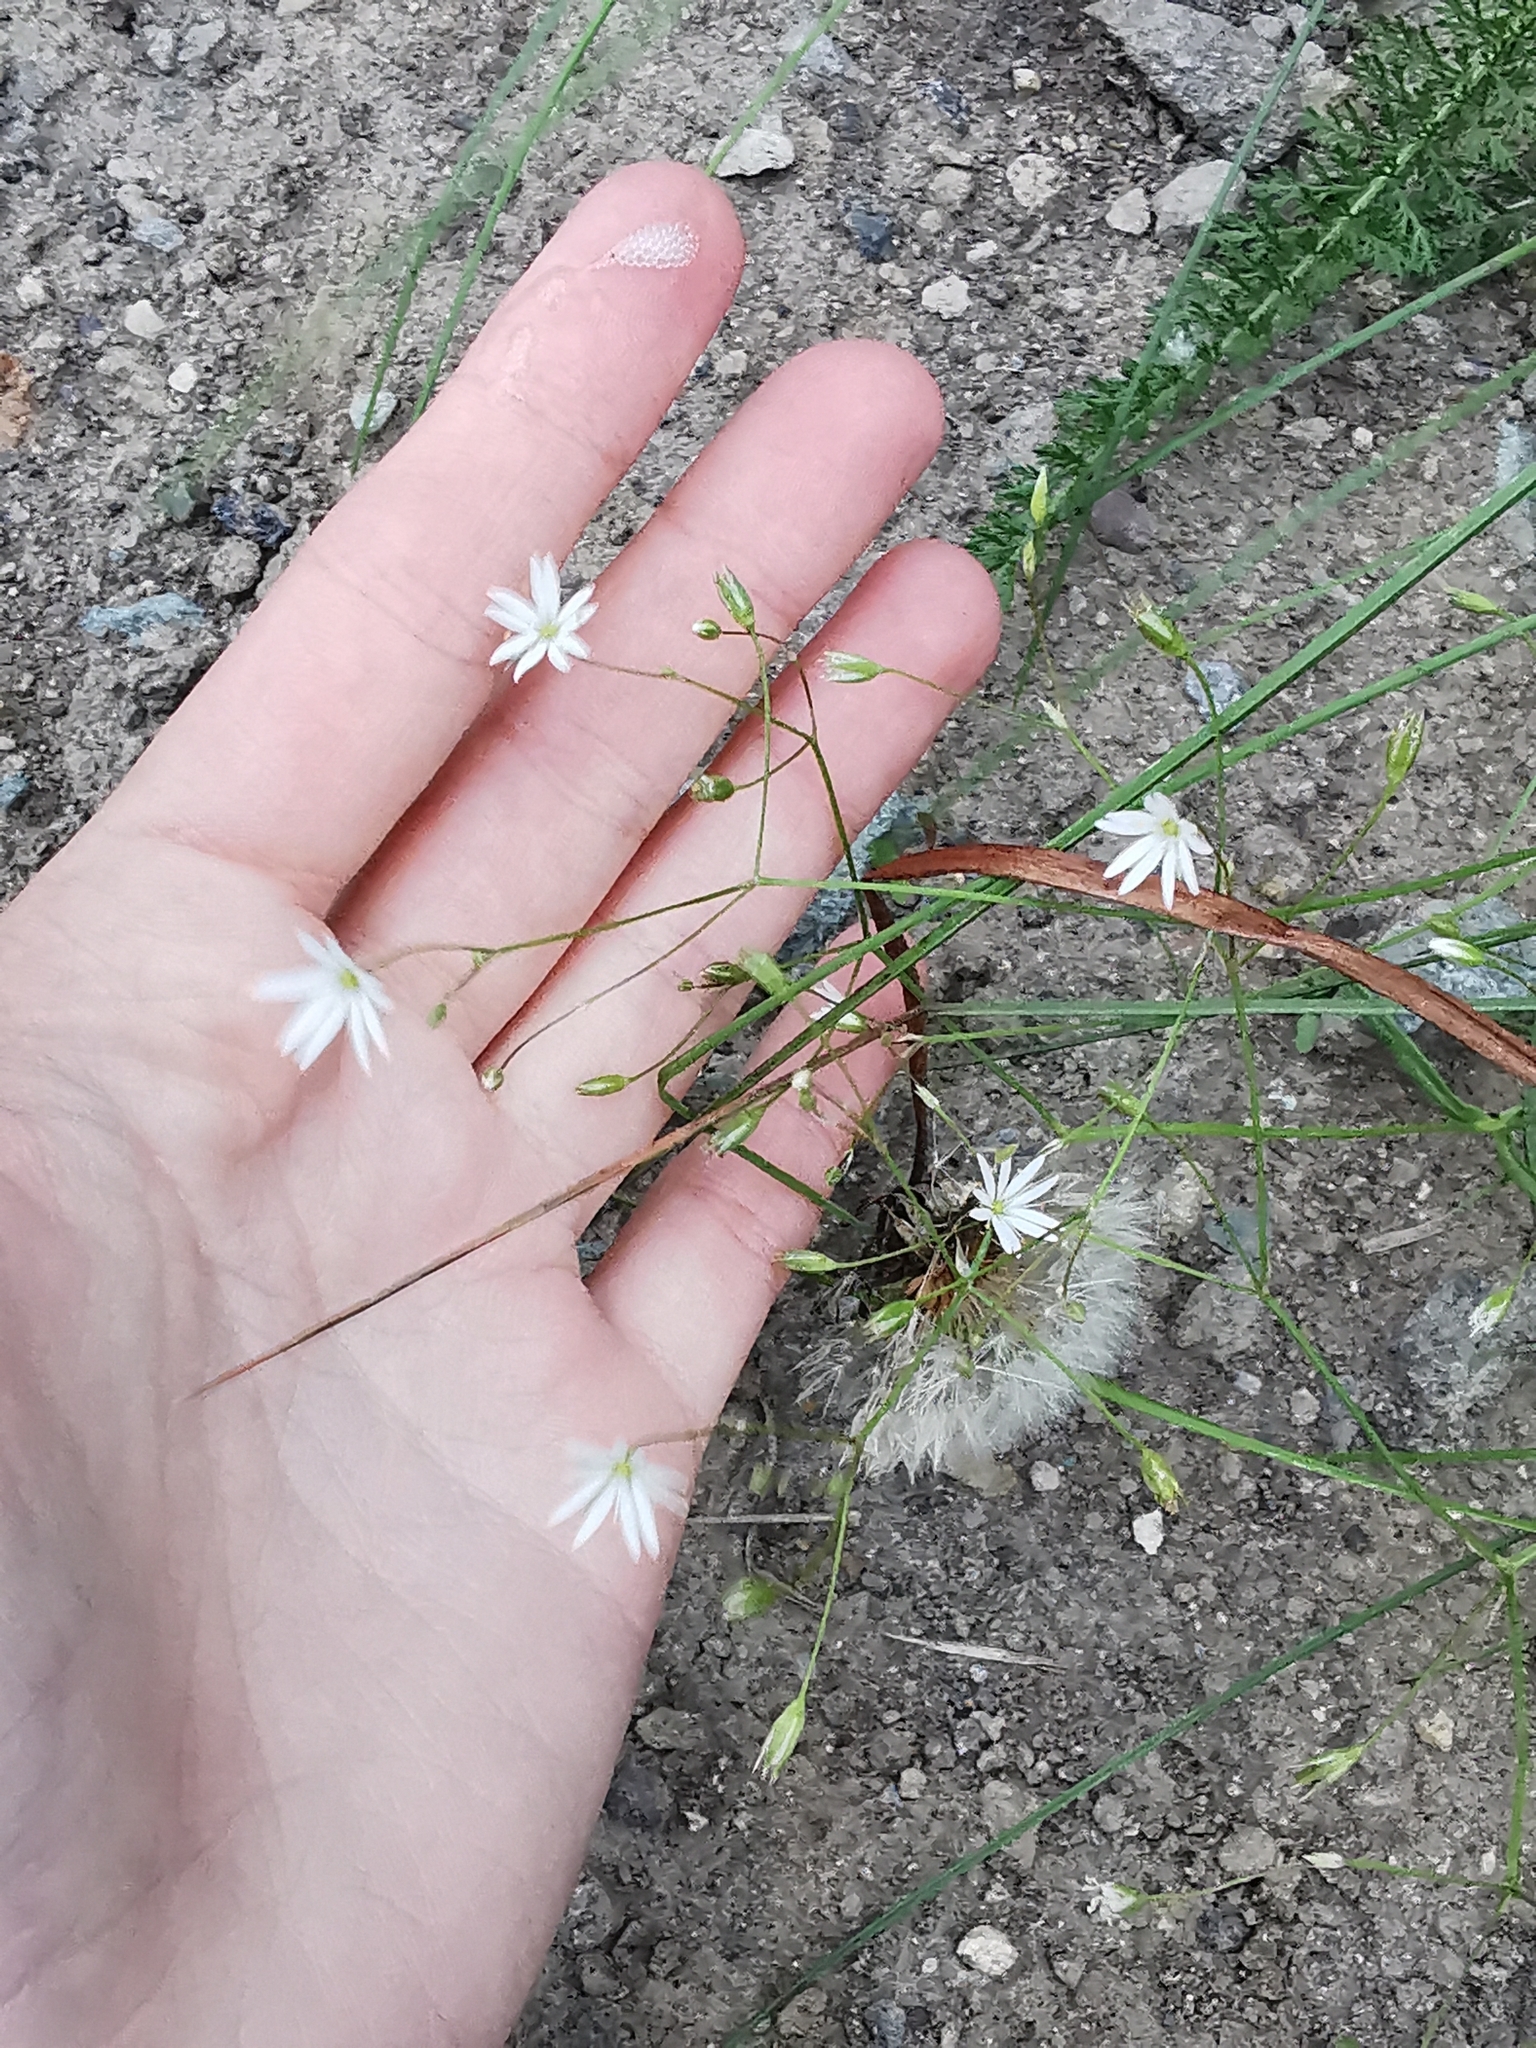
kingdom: Plantae
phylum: Tracheophyta
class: Magnoliopsida
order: Caryophyllales
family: Caryophyllaceae
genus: Stellaria
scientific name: Stellaria graminea
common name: Grass-like starwort
